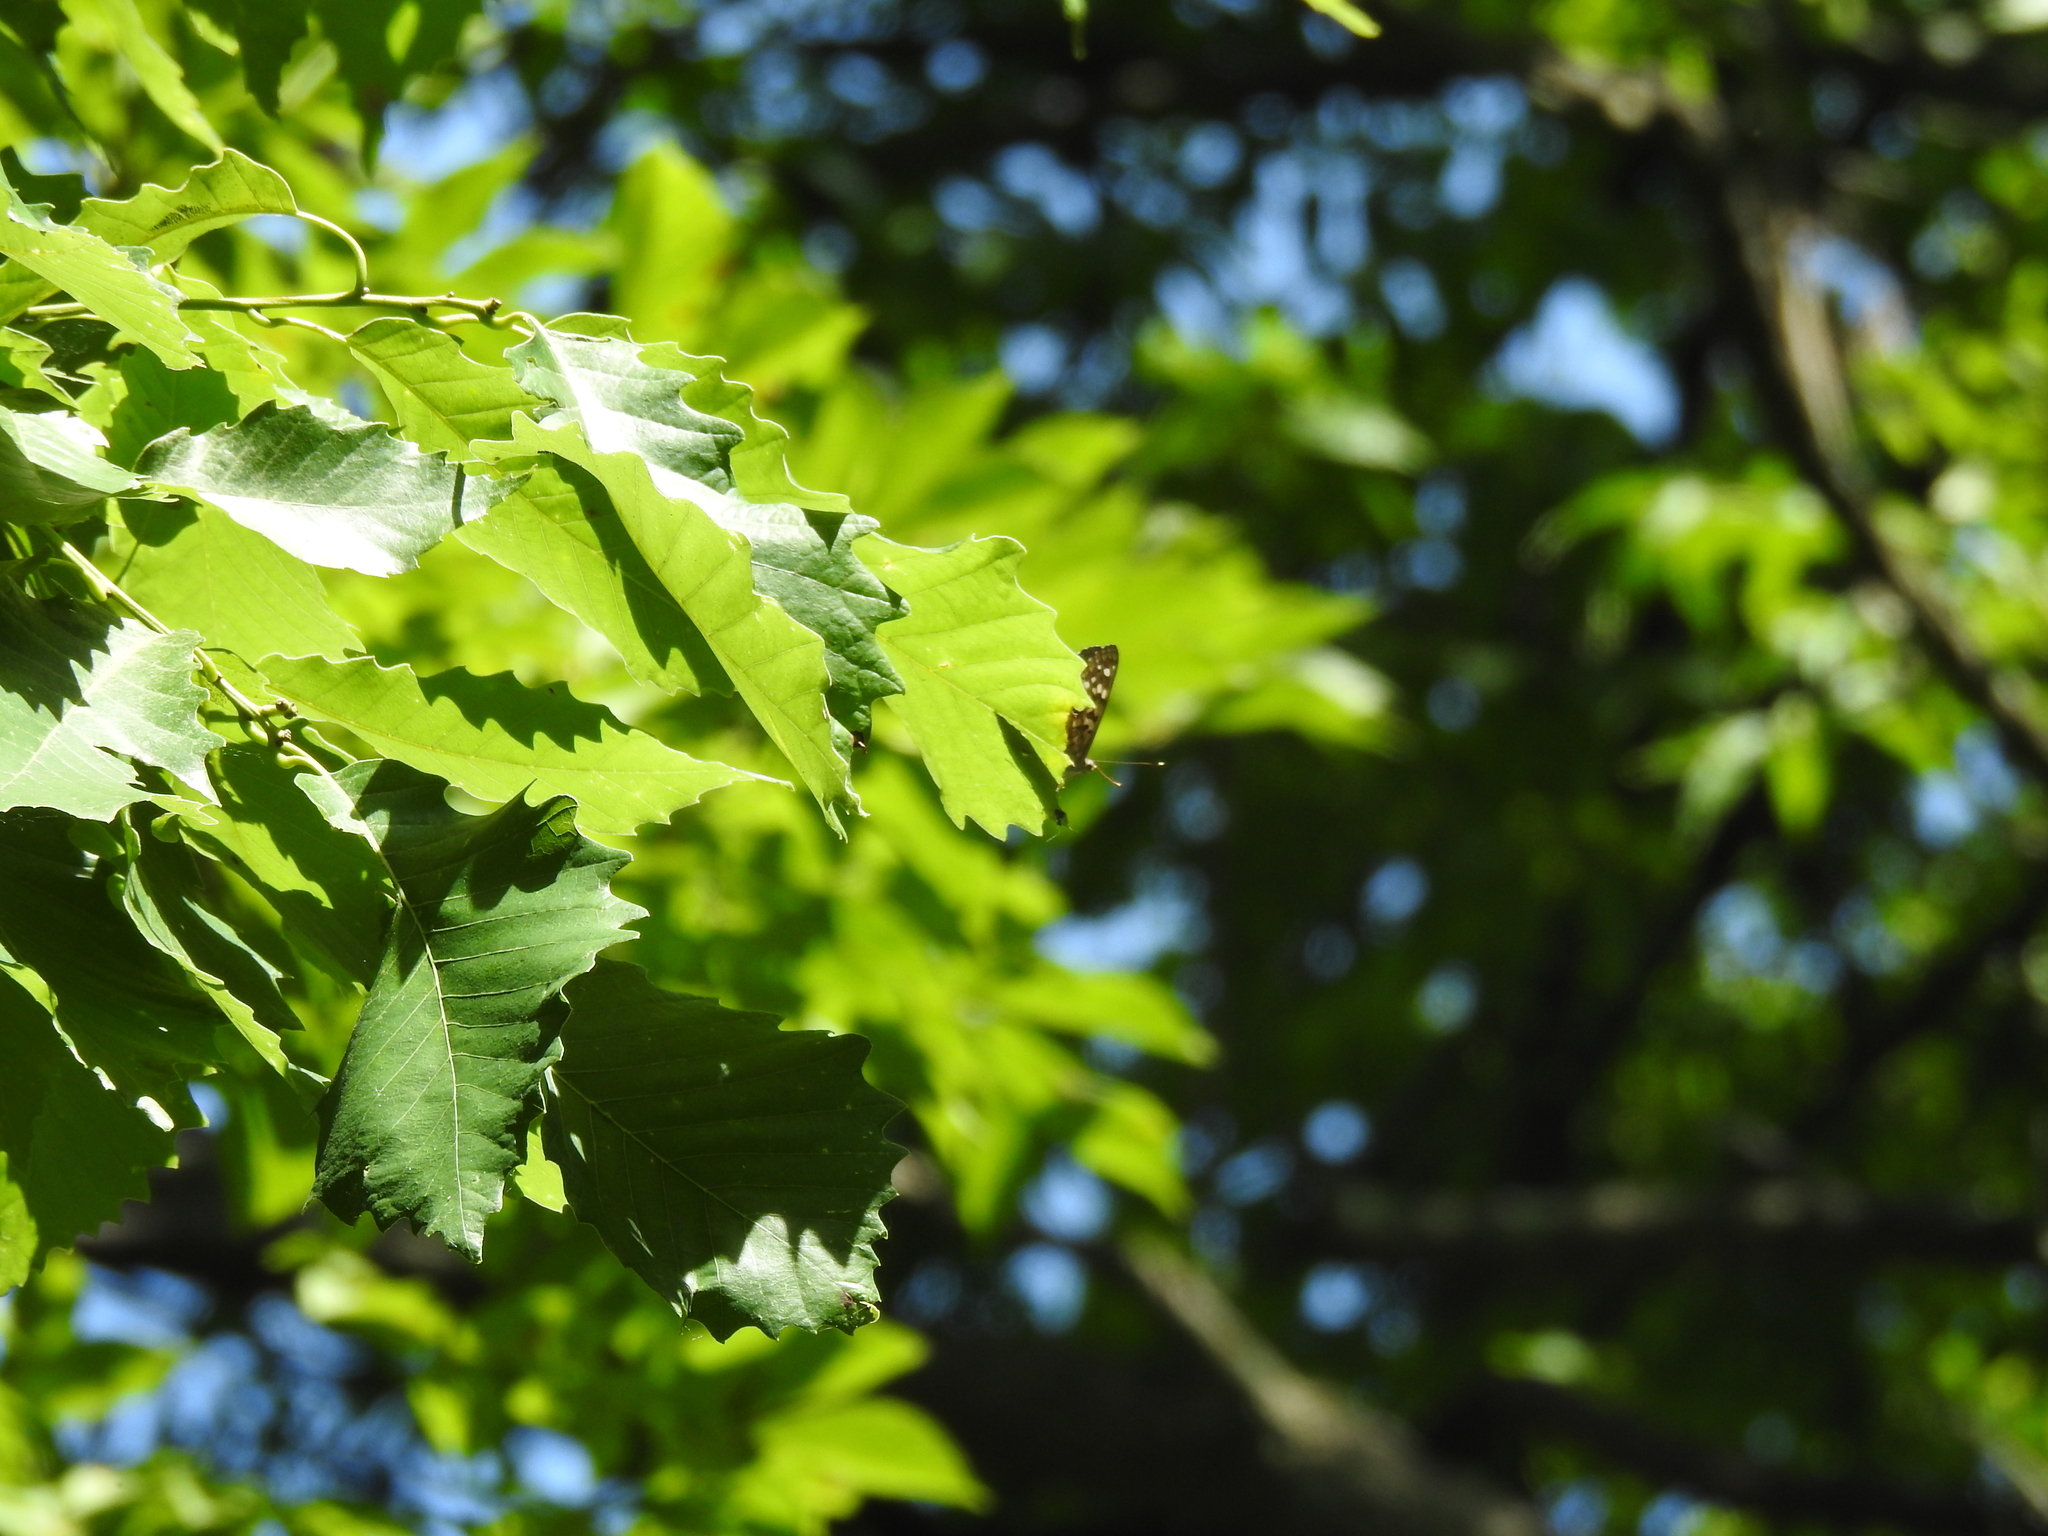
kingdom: Animalia
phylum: Arthropoda
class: Insecta
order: Lepidoptera
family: Nymphalidae
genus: Asterocampa
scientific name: Asterocampa celtis
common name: Hackberry emperor
